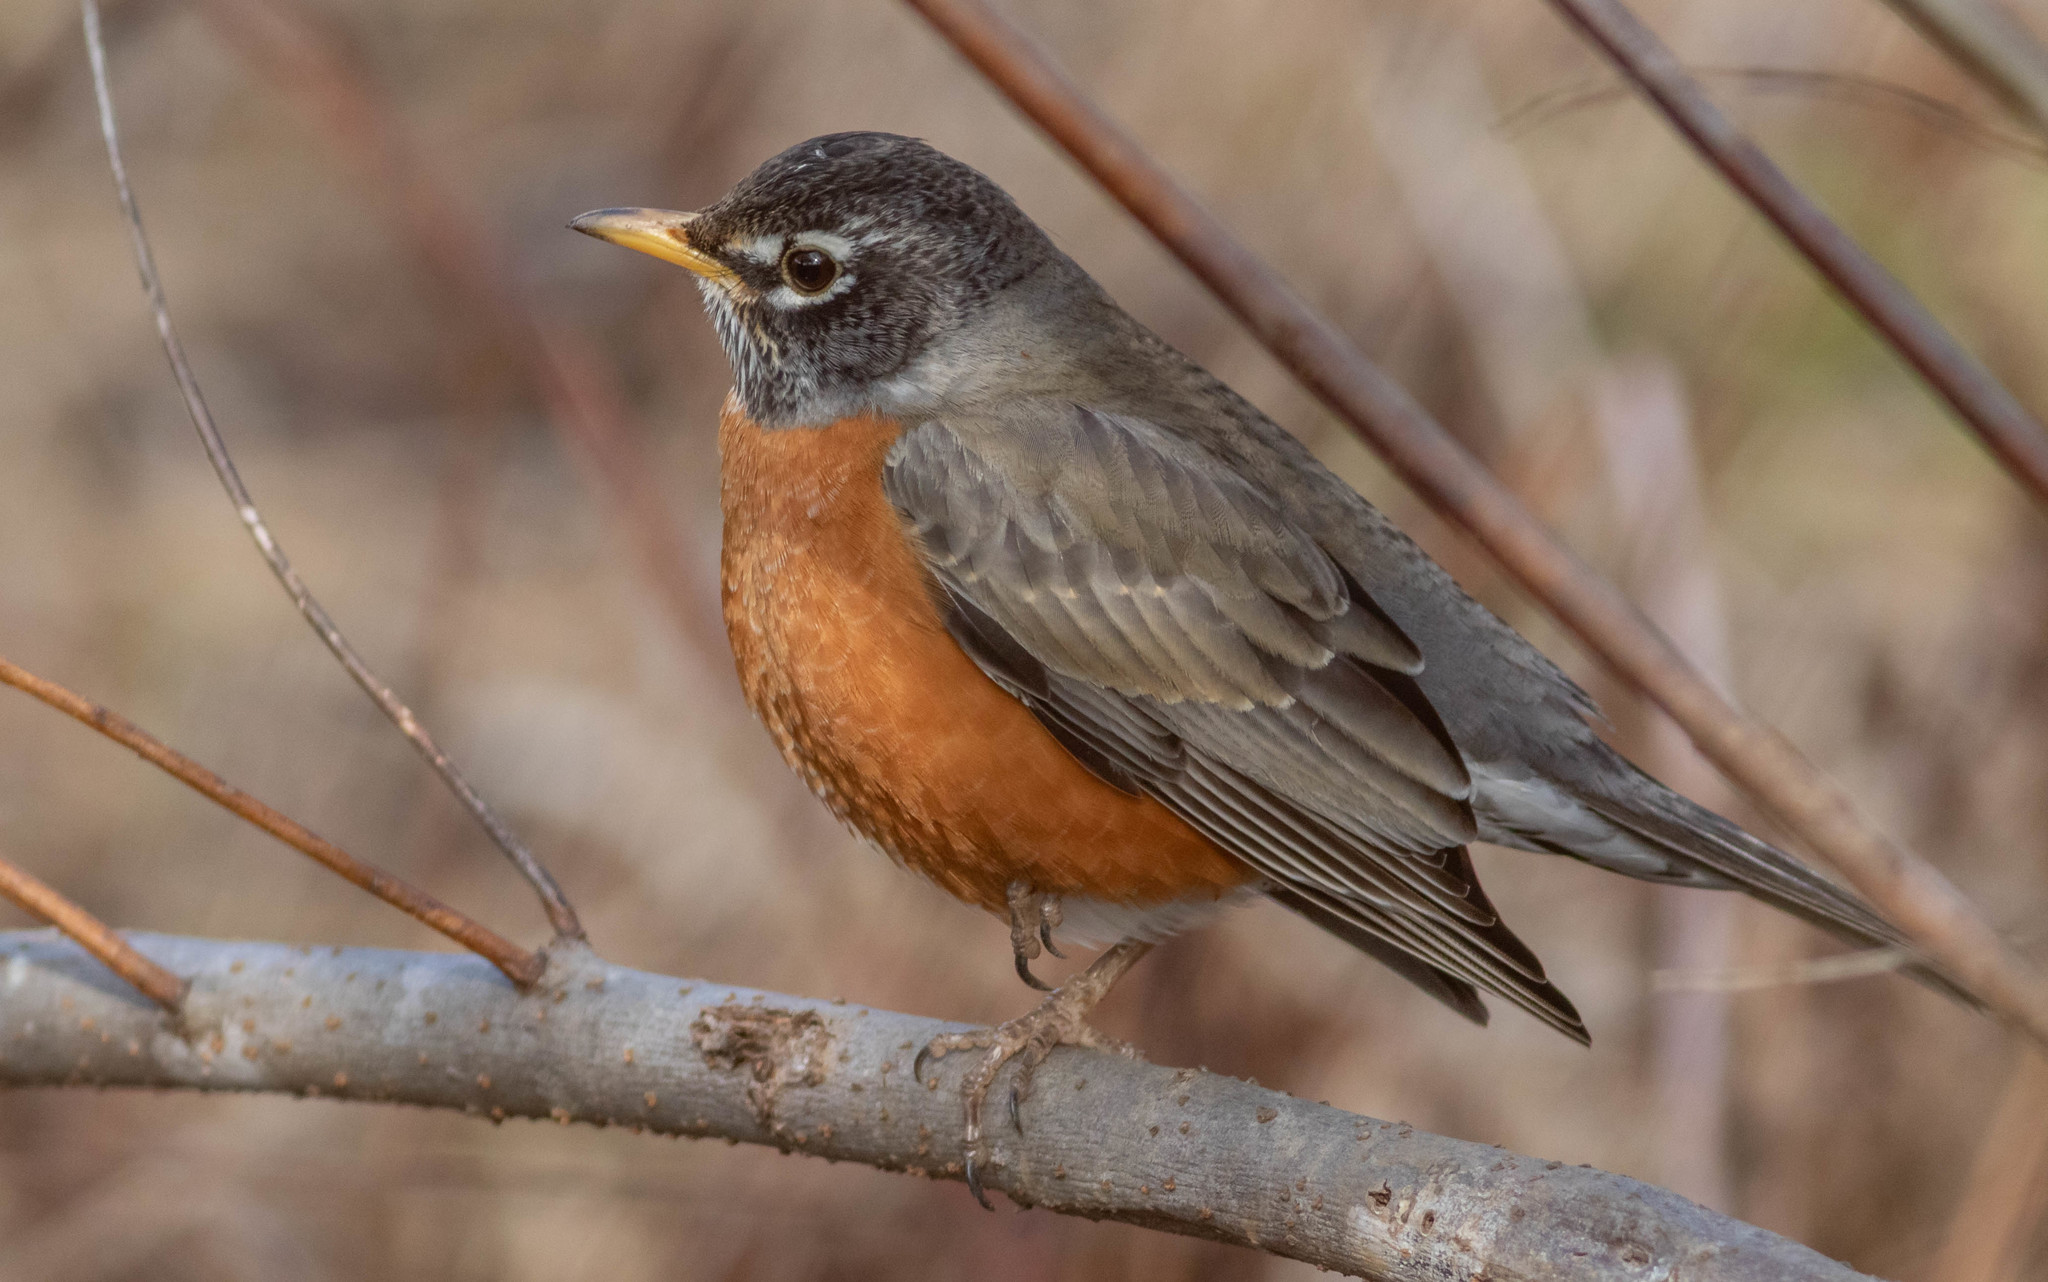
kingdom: Animalia
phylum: Chordata
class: Aves
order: Passeriformes
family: Turdidae
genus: Turdus
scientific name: Turdus migratorius
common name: American robin
